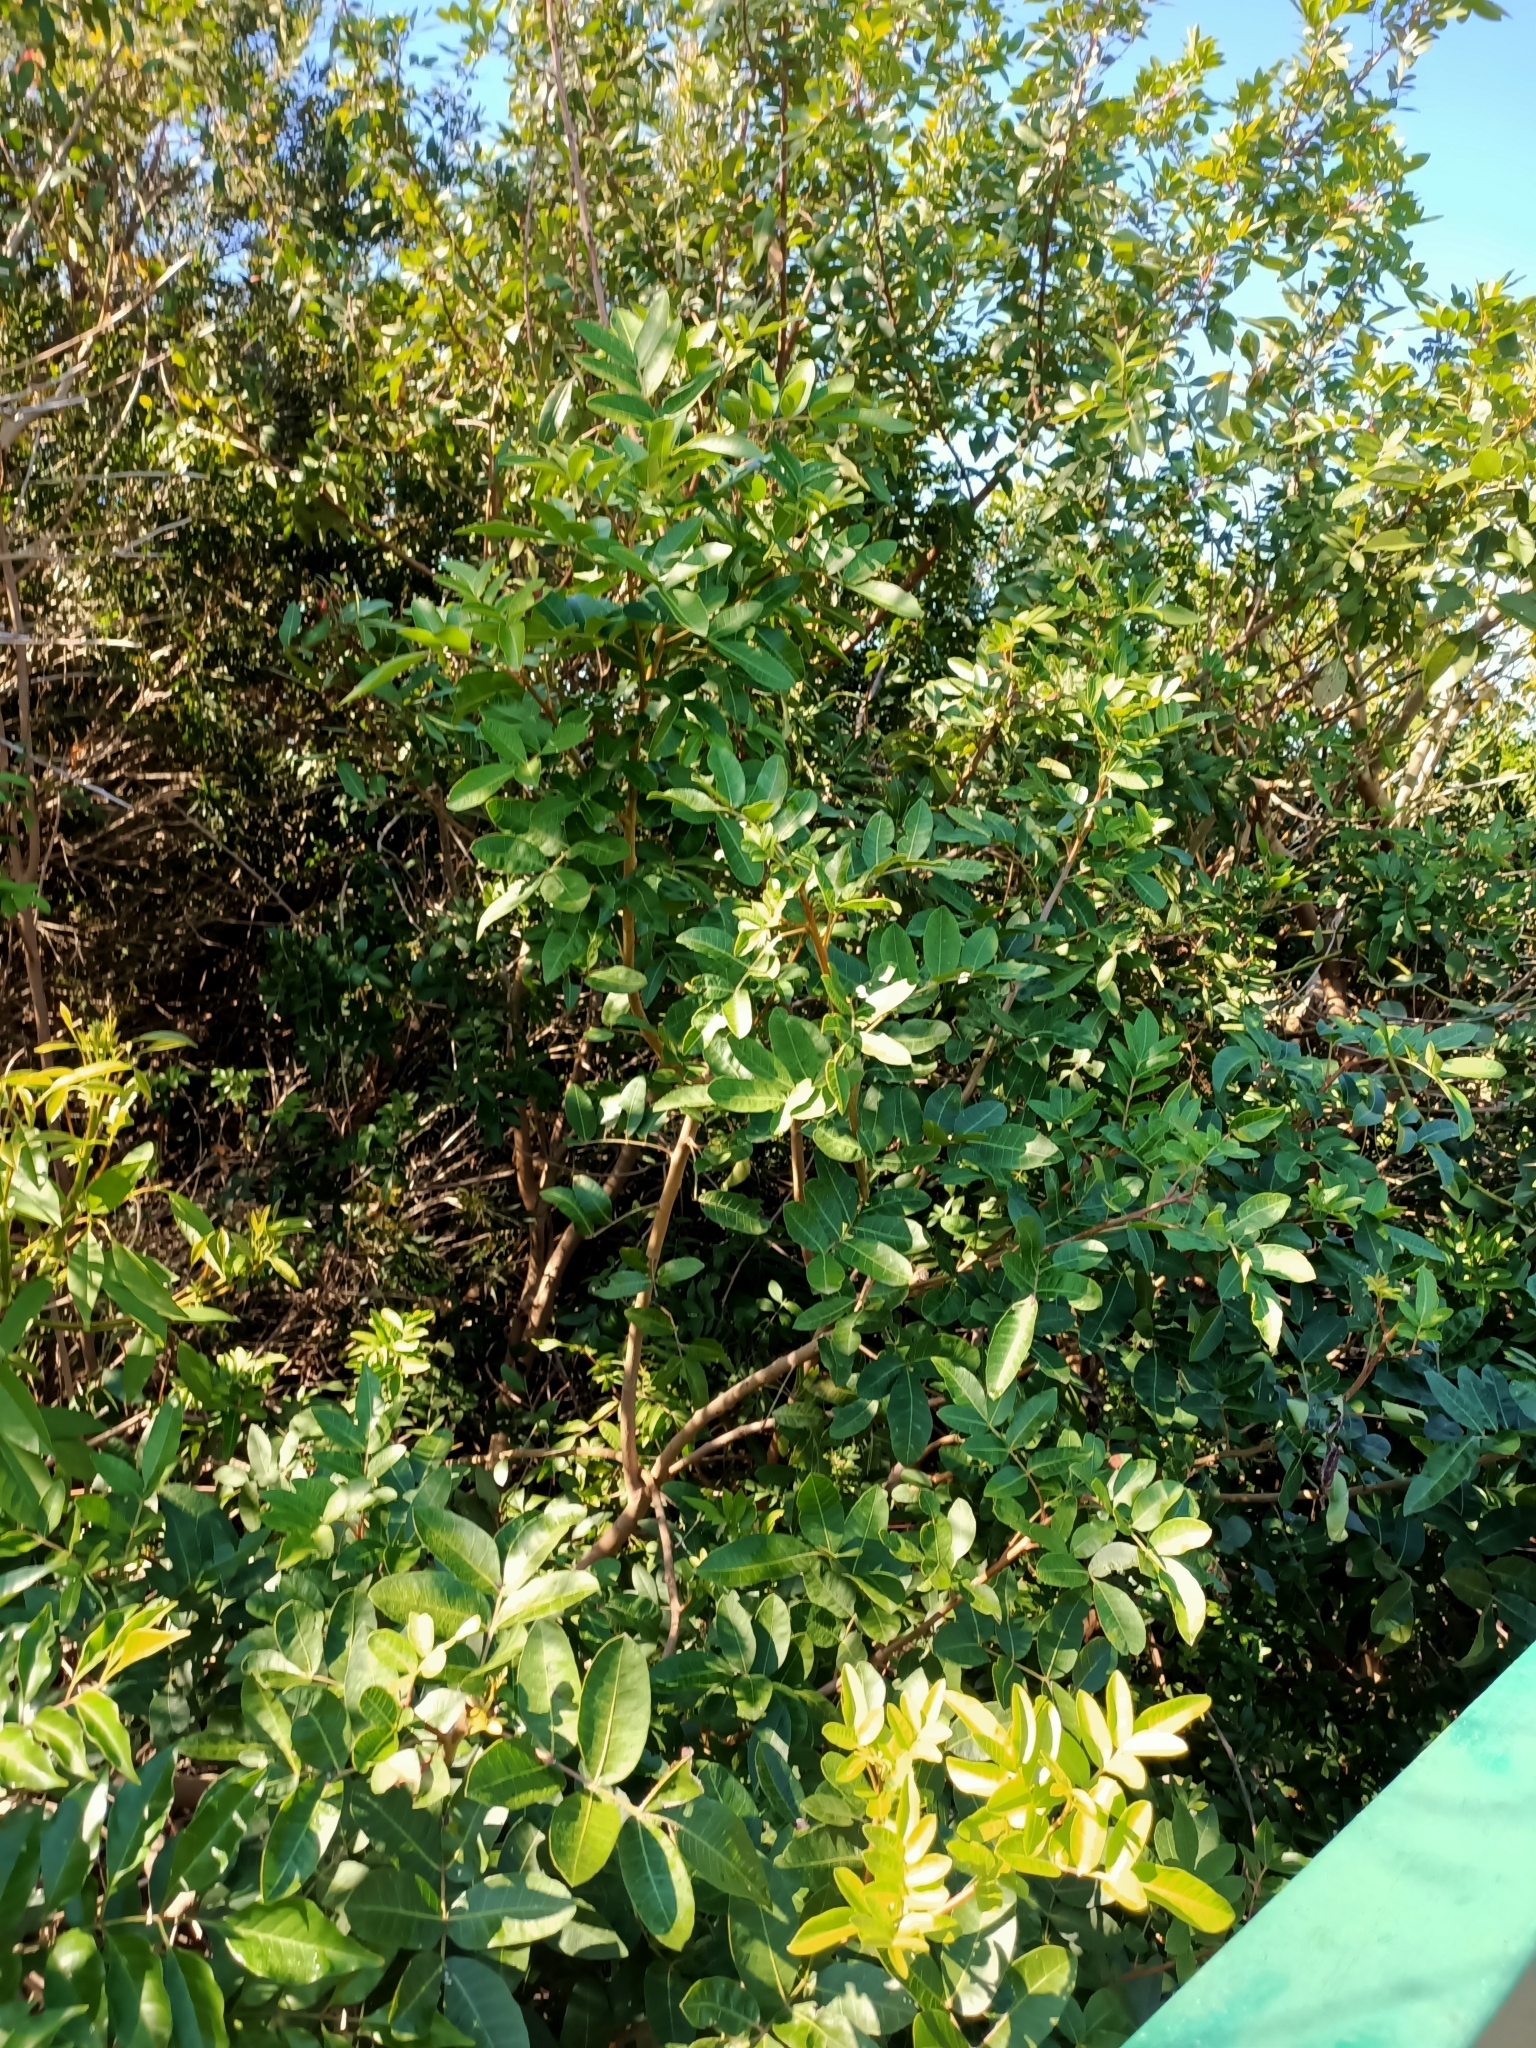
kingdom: Plantae
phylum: Tracheophyta
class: Magnoliopsida
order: Sapindales
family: Anacardiaceae
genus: Schinus
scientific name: Schinus terebinthifolia
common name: Brazilian peppertree
